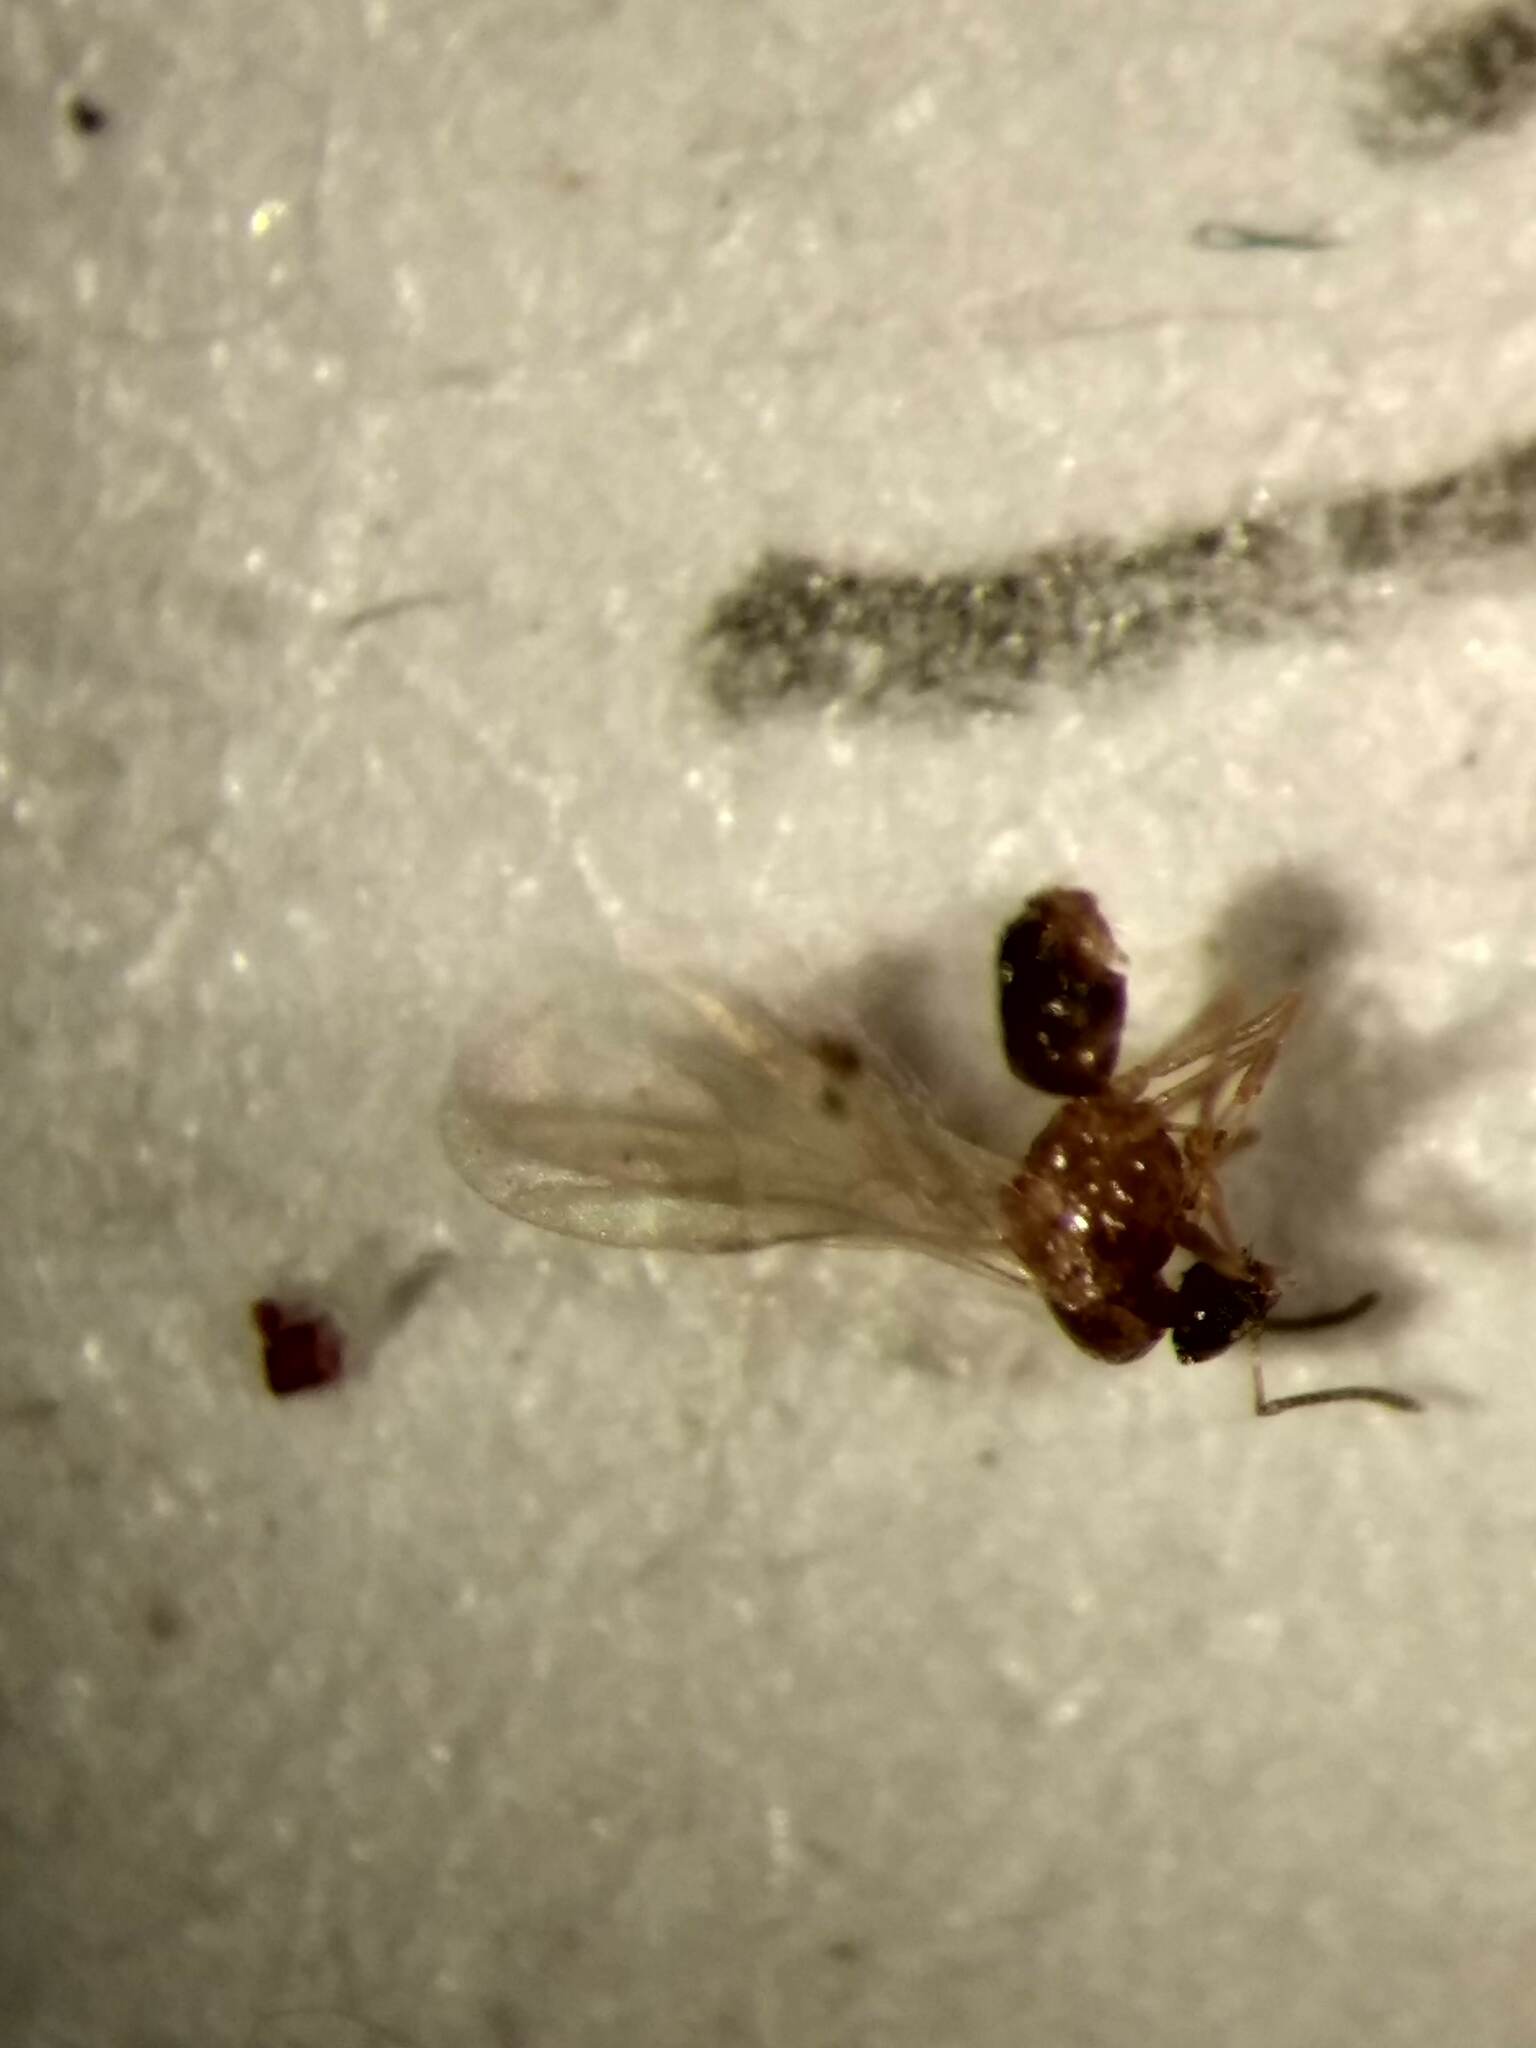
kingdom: Animalia
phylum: Arthropoda
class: Insecta
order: Hymenoptera
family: Formicidae
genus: Brachymyrmex
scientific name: Brachymyrmex patagonicus
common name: Dark rover ant
